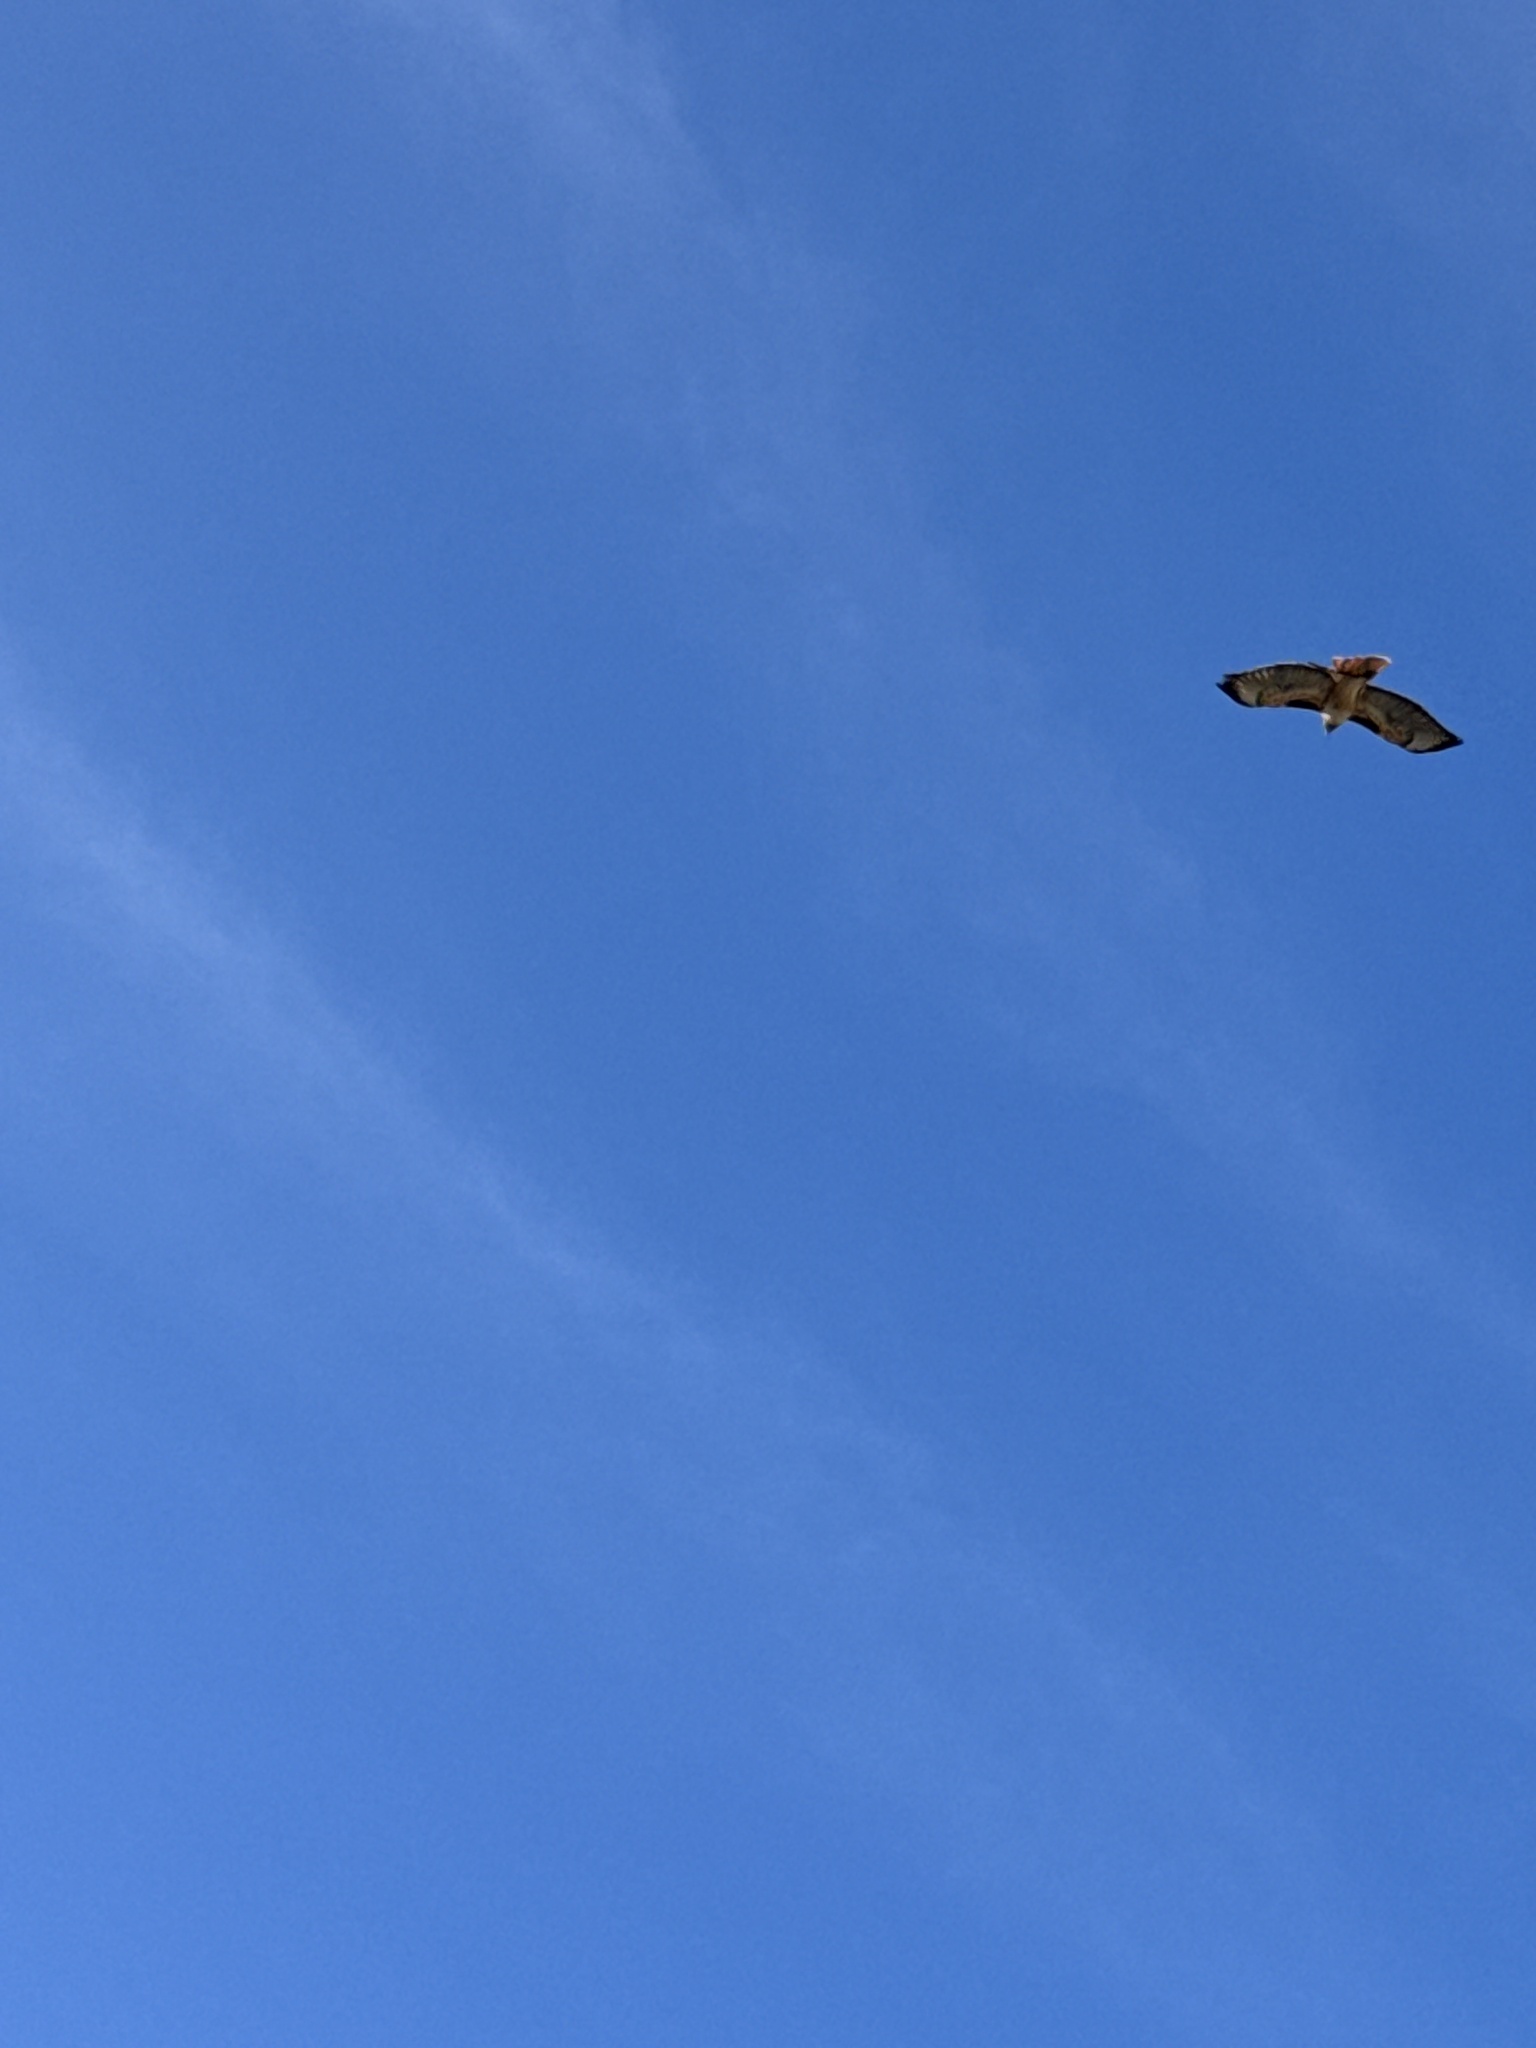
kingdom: Animalia
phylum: Chordata
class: Aves
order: Accipitriformes
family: Accipitridae
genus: Buteo
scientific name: Buteo jamaicensis
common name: Red-tailed hawk
